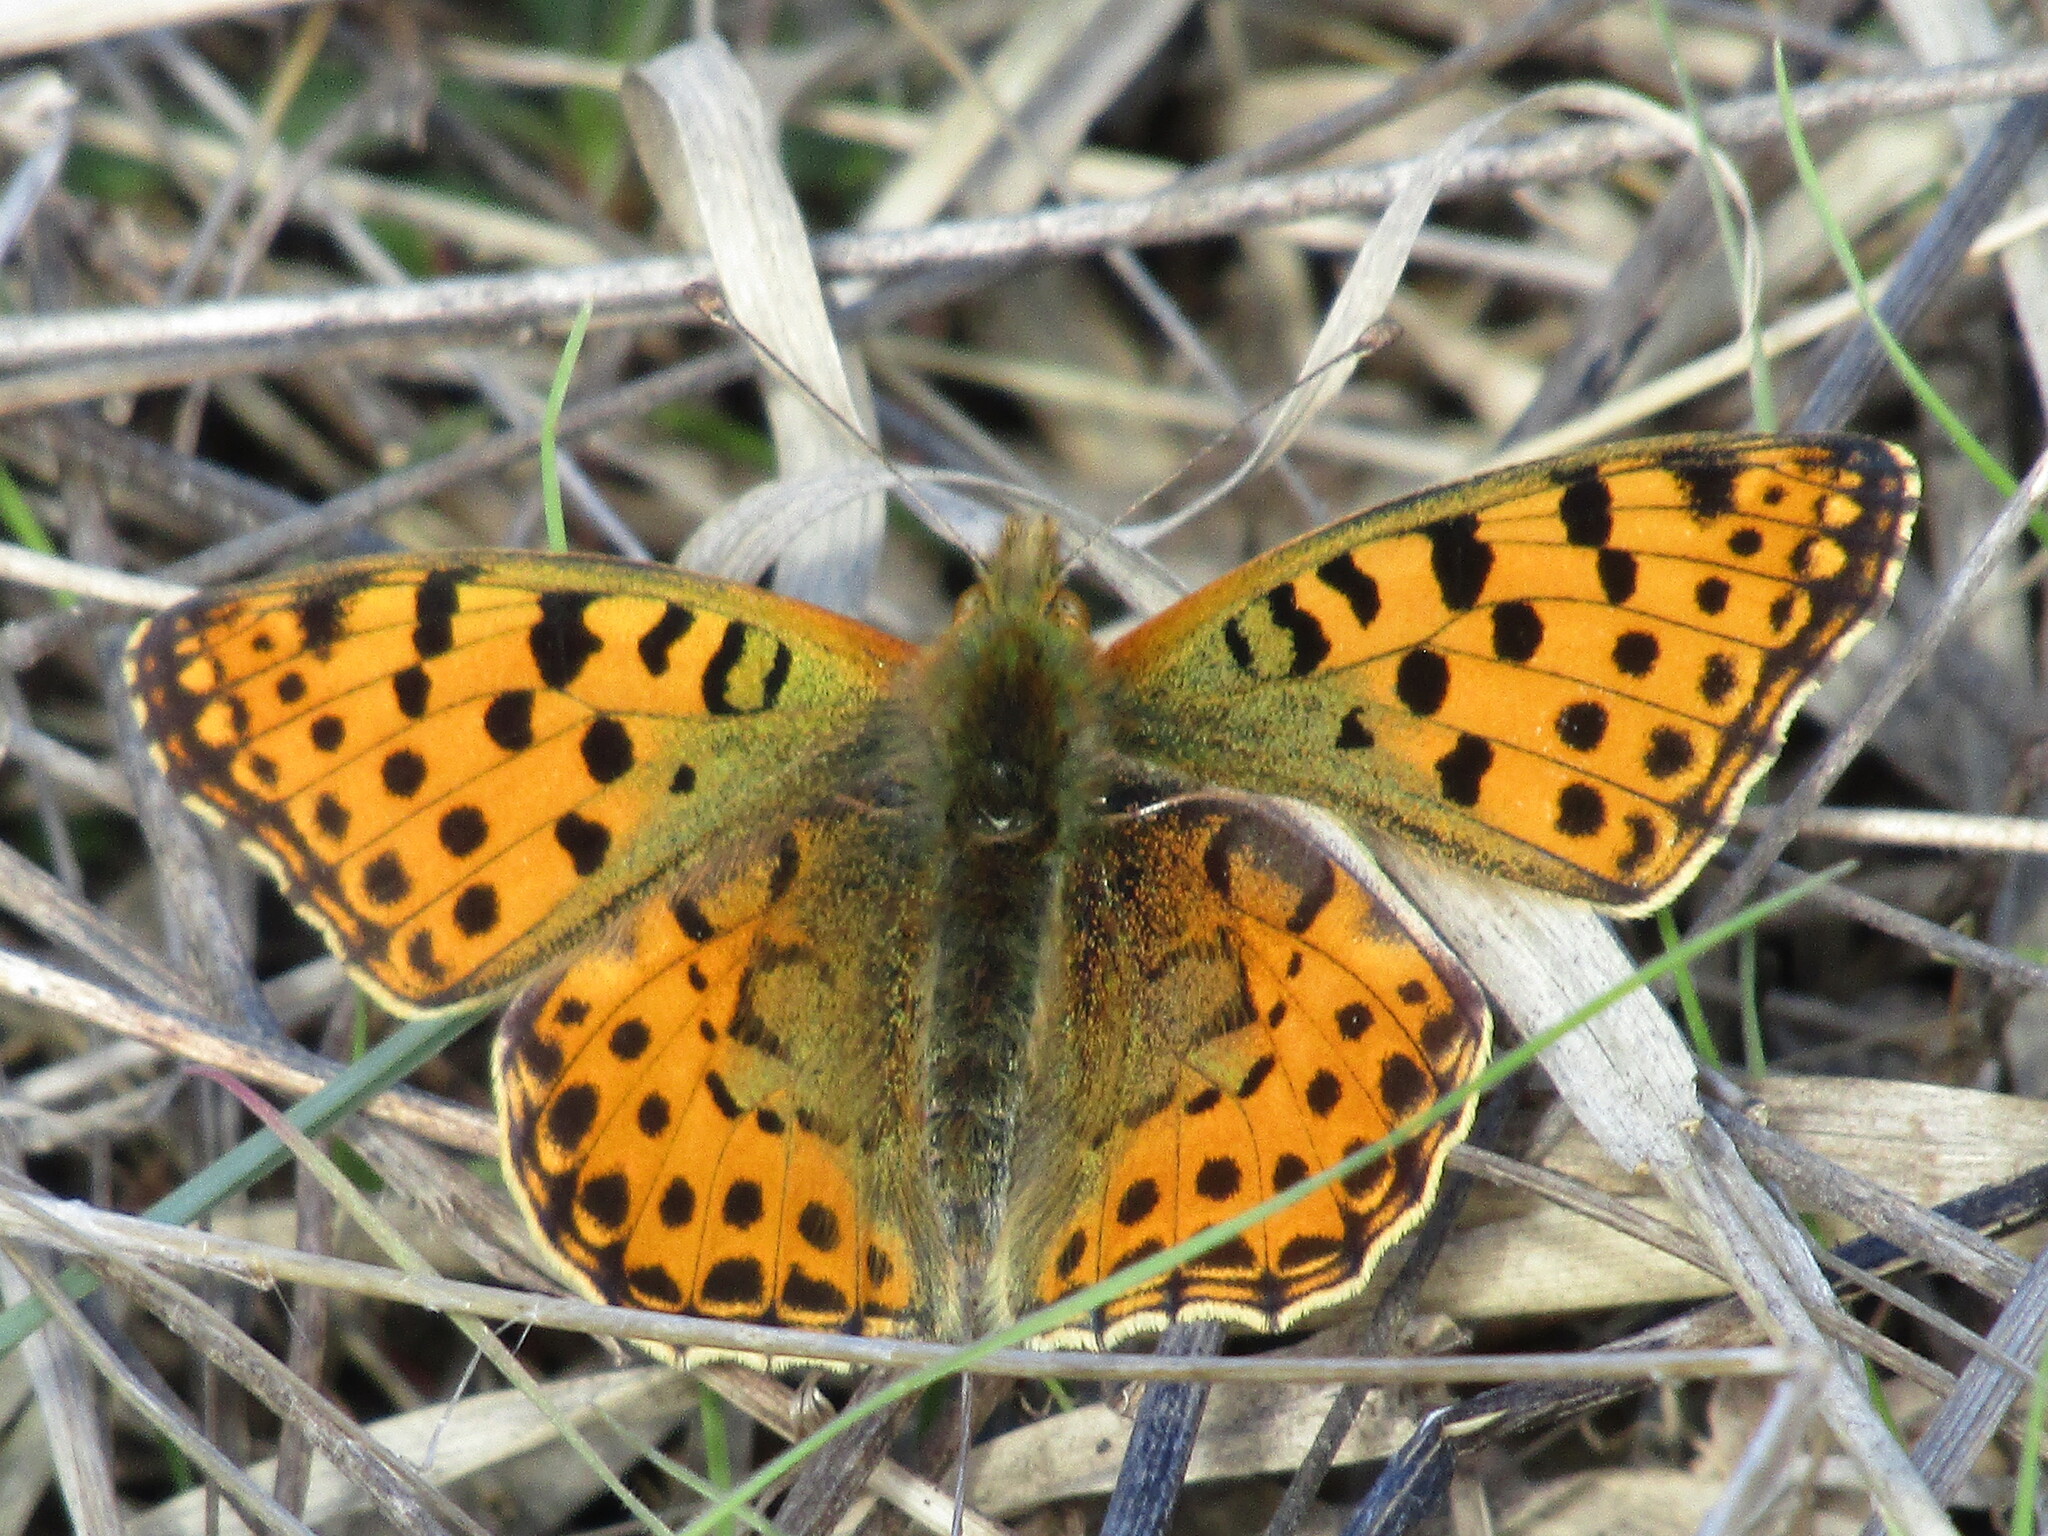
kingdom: Animalia
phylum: Arthropoda
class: Insecta
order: Lepidoptera
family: Nymphalidae
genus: Issoria
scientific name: Issoria lathonia
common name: Queen of spain fritillary
